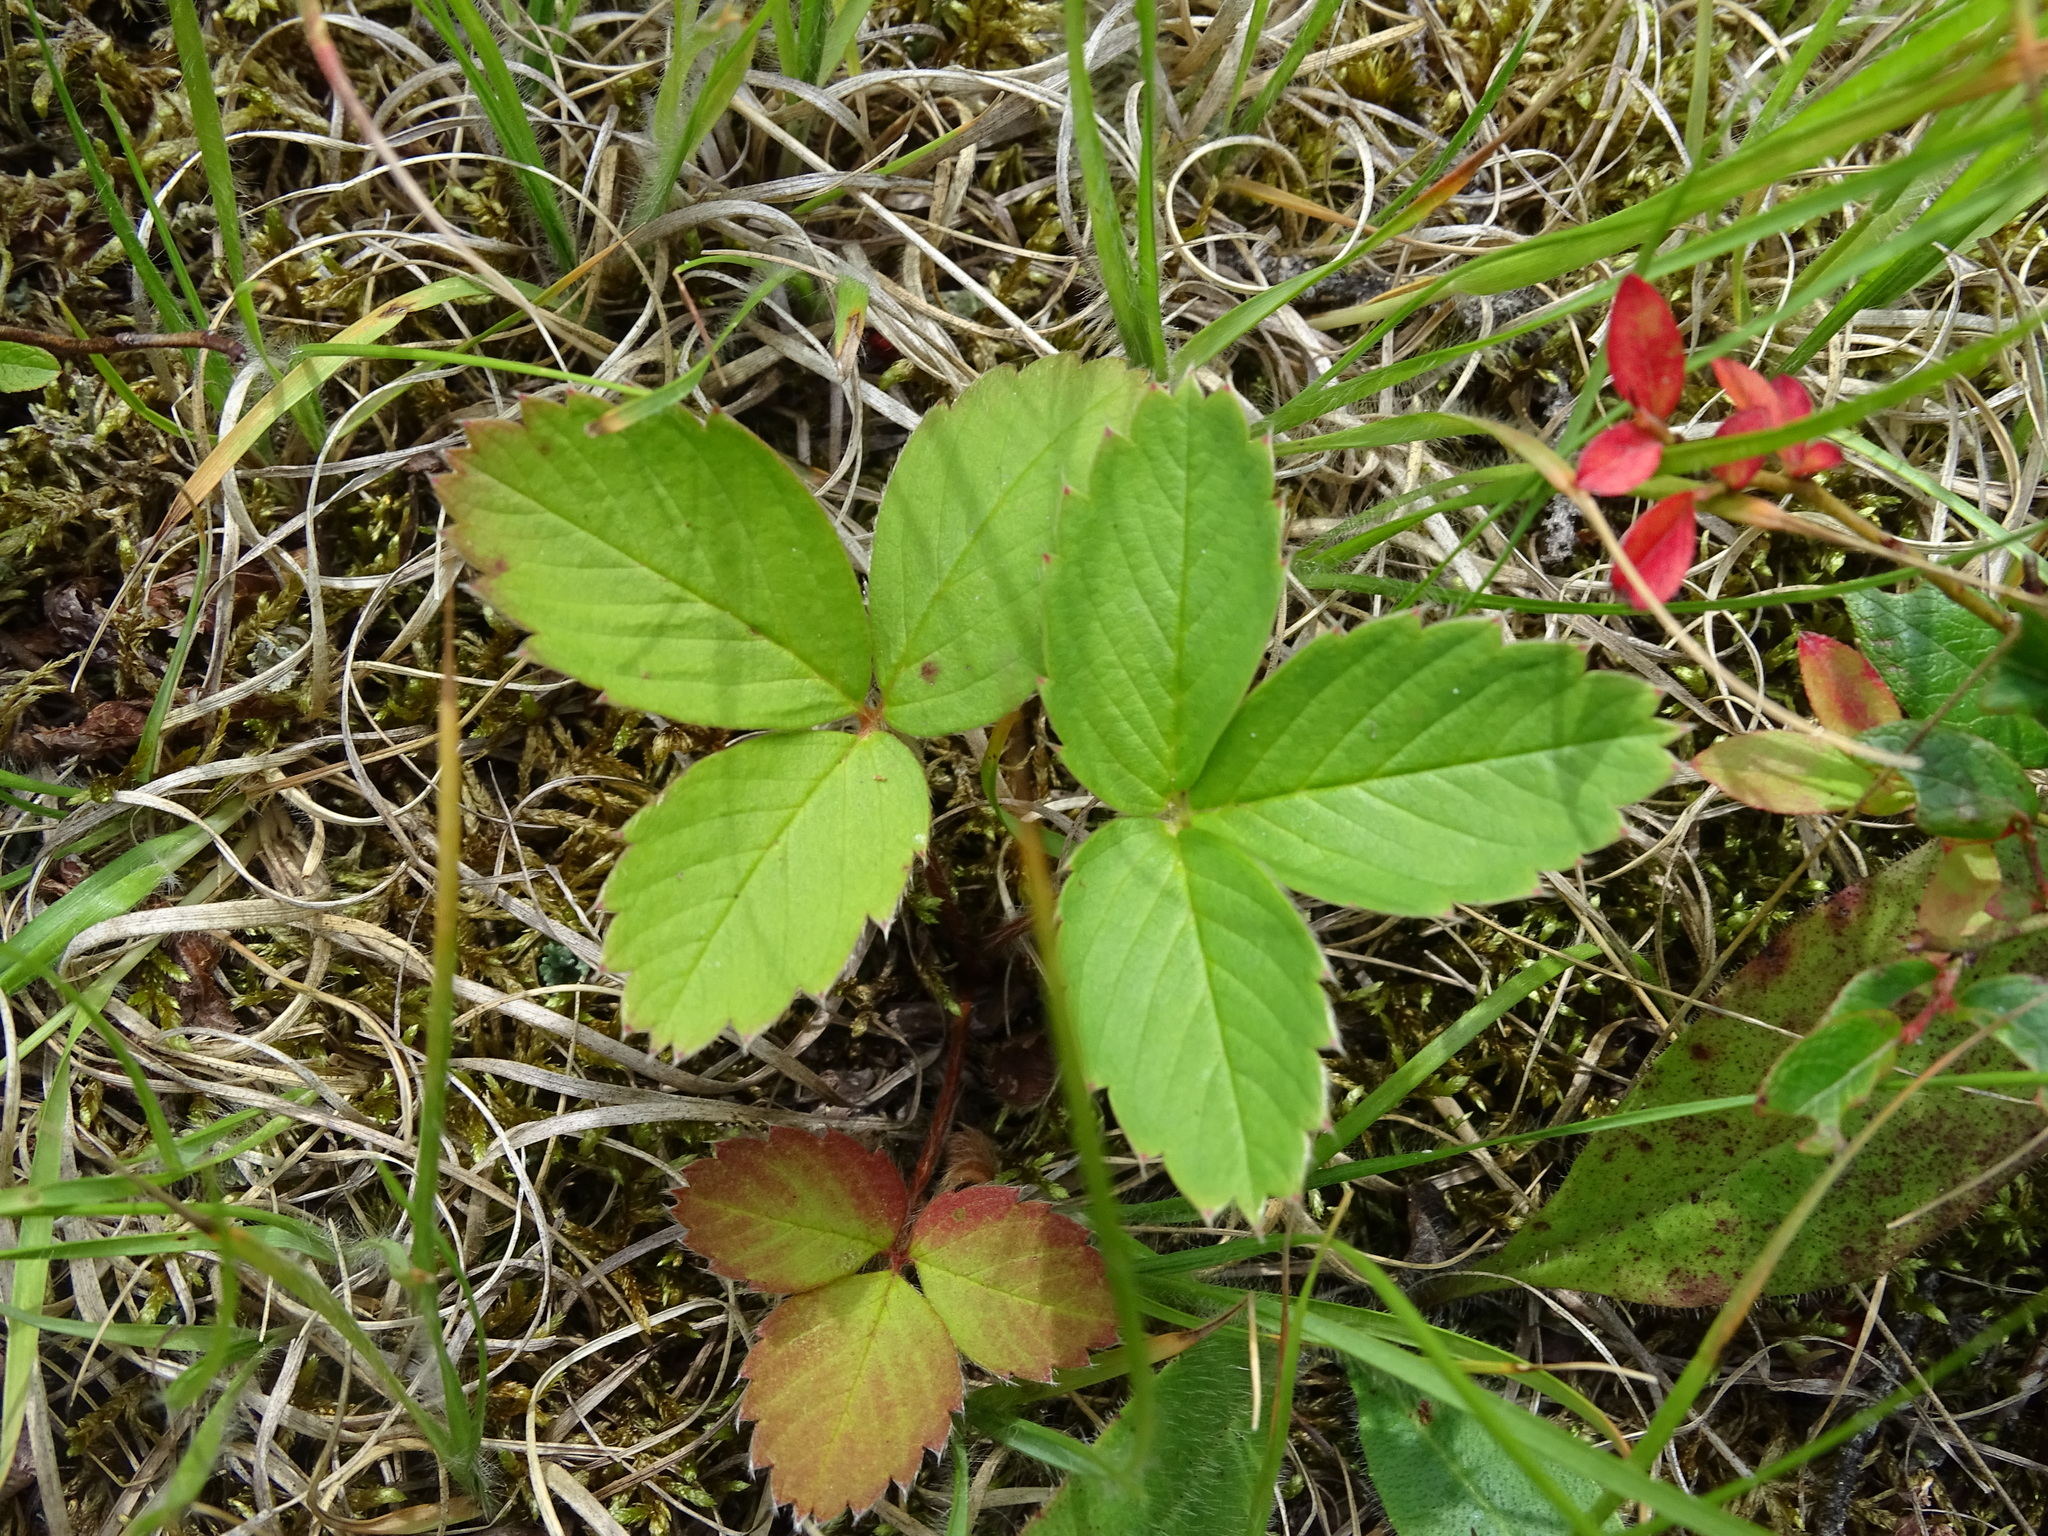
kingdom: Plantae
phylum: Tracheophyta
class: Magnoliopsida
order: Rosales
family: Rosaceae
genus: Fragaria
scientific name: Fragaria virginiana
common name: Thickleaved wild strawberry
